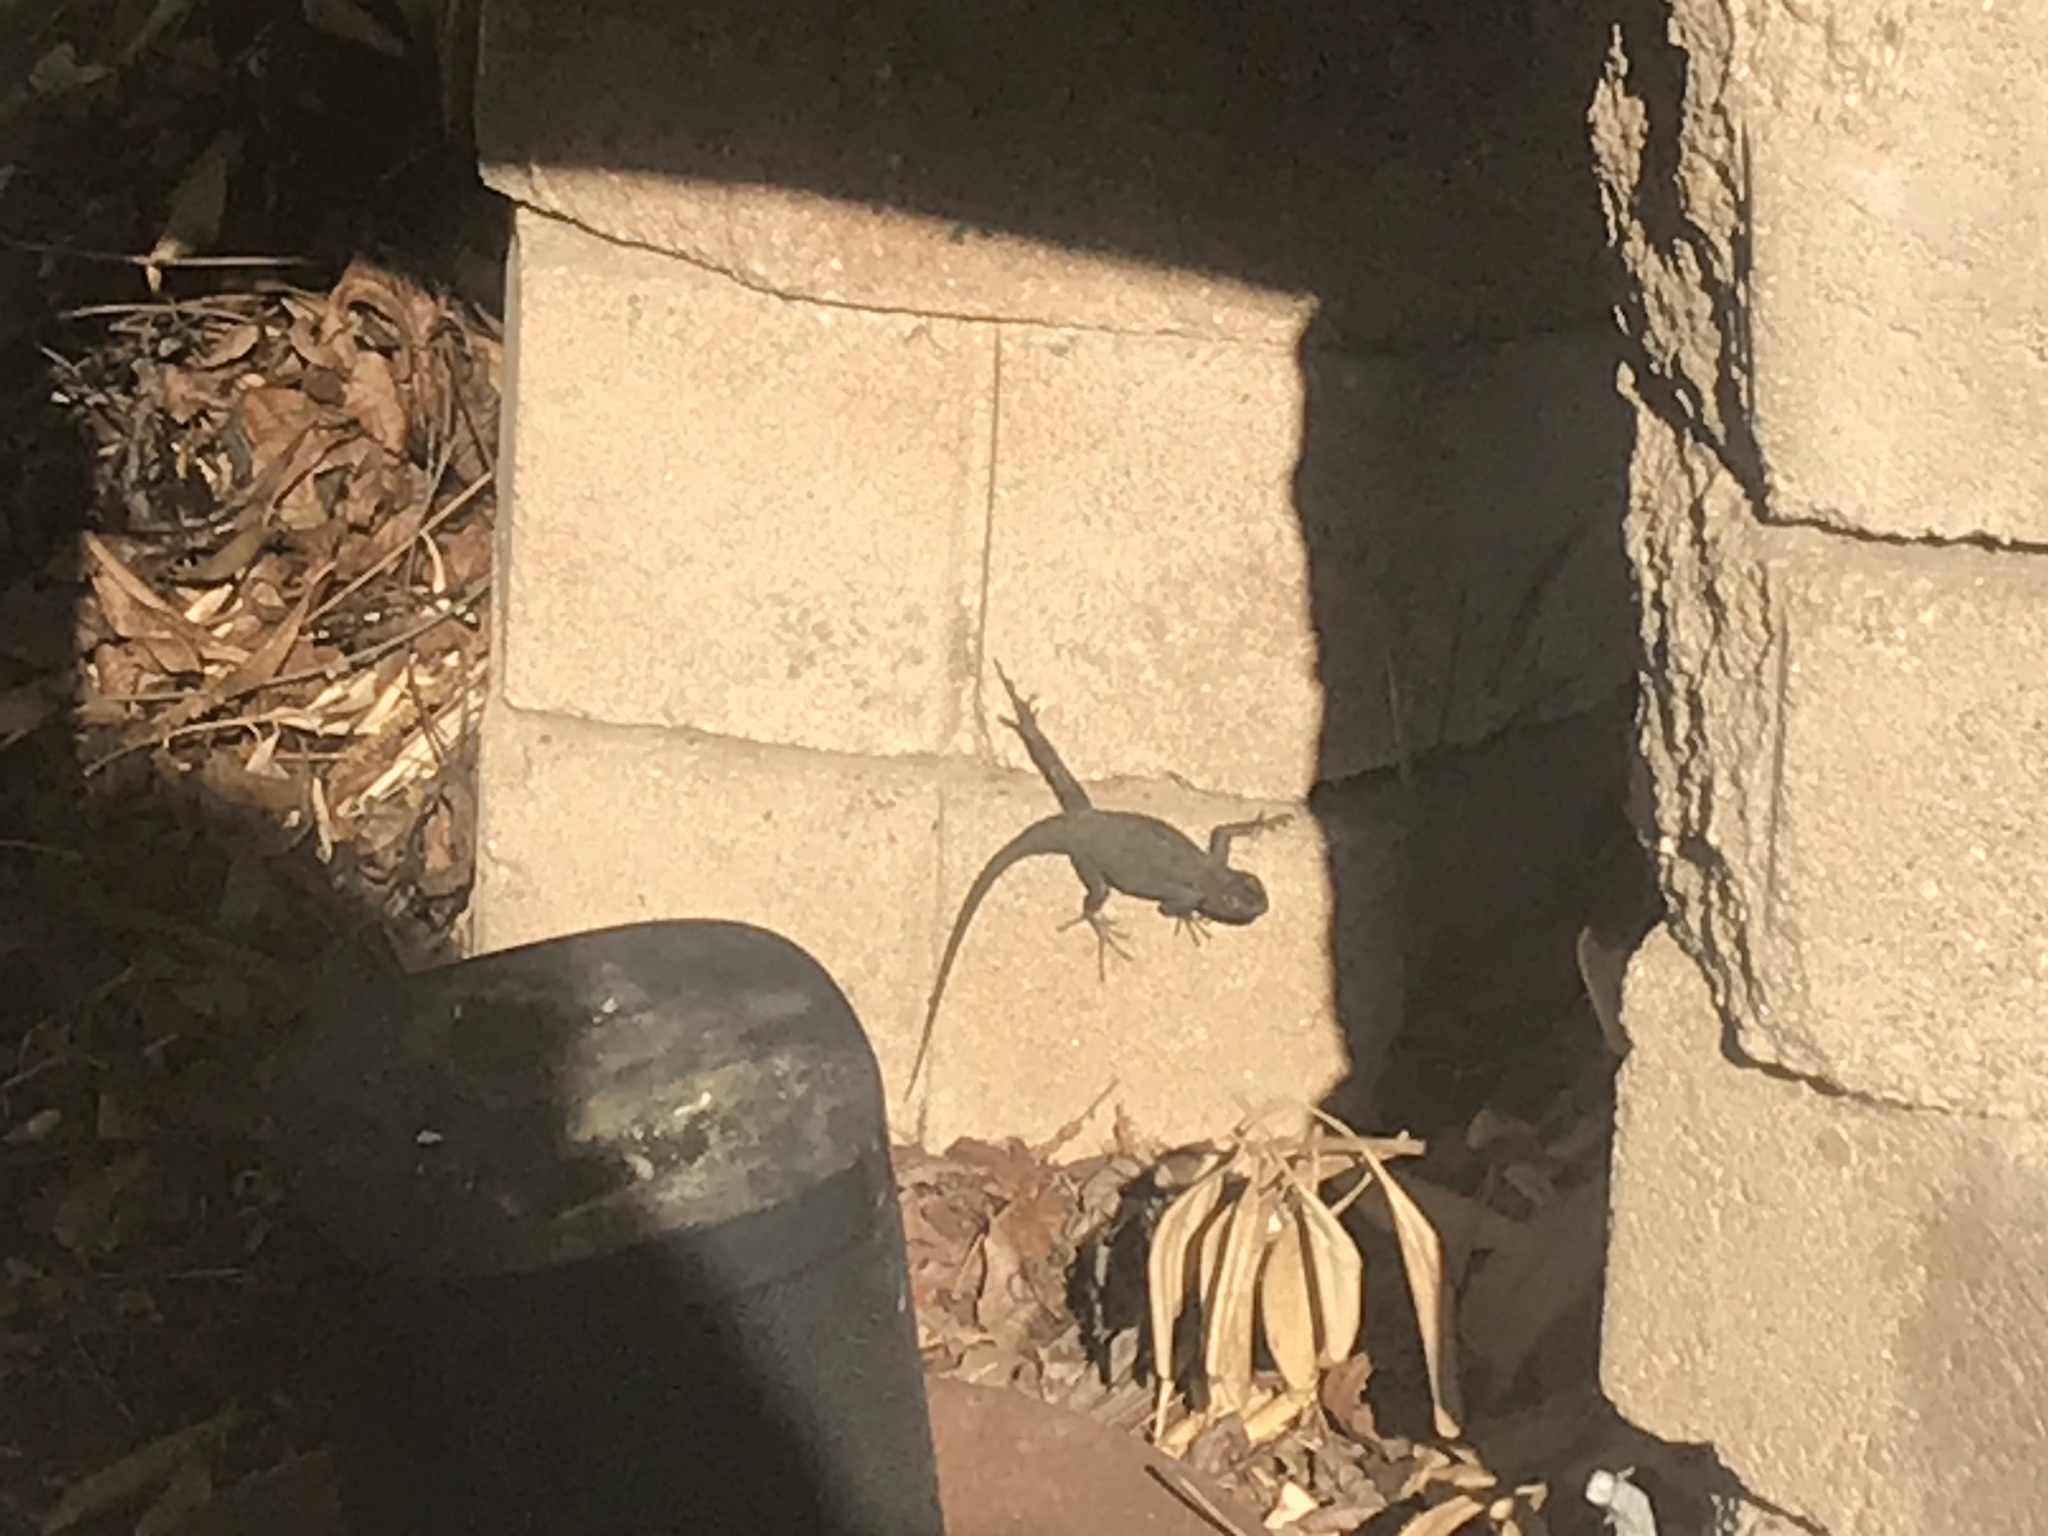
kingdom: Animalia
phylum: Chordata
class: Squamata
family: Phrynosomatidae
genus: Sceloporus
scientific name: Sceloporus occidentalis
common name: Western fence lizard
